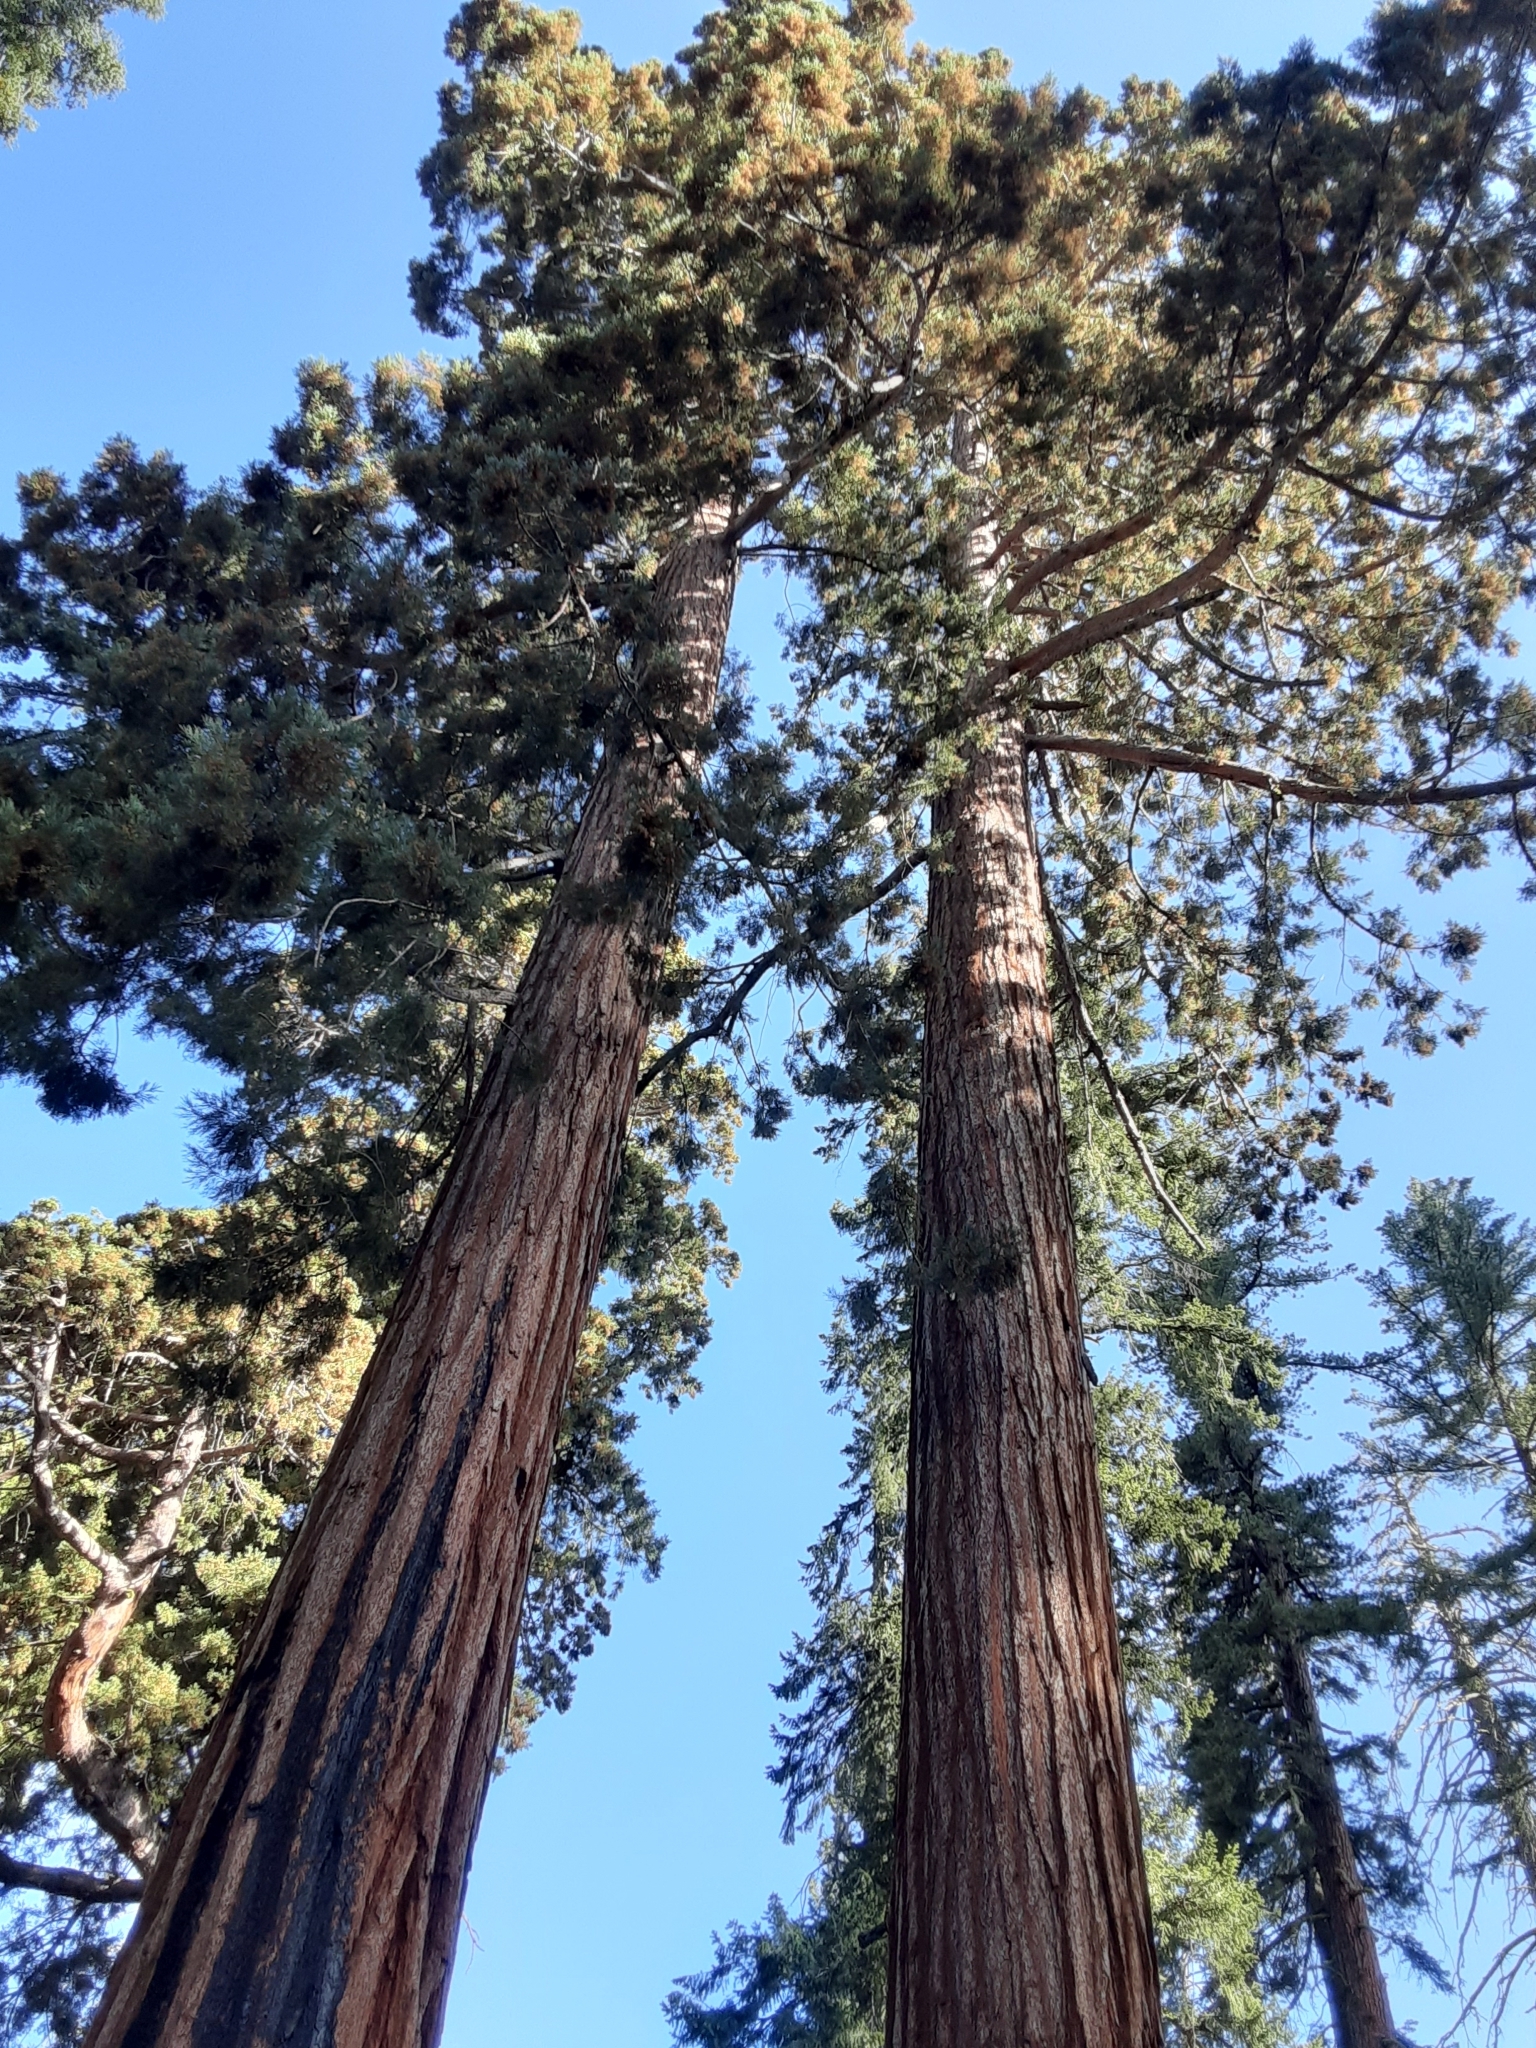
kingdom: Plantae
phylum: Tracheophyta
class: Pinopsida
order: Pinales
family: Cupressaceae
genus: Sequoiadendron
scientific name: Sequoiadendron giganteum
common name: Wellingtonia
